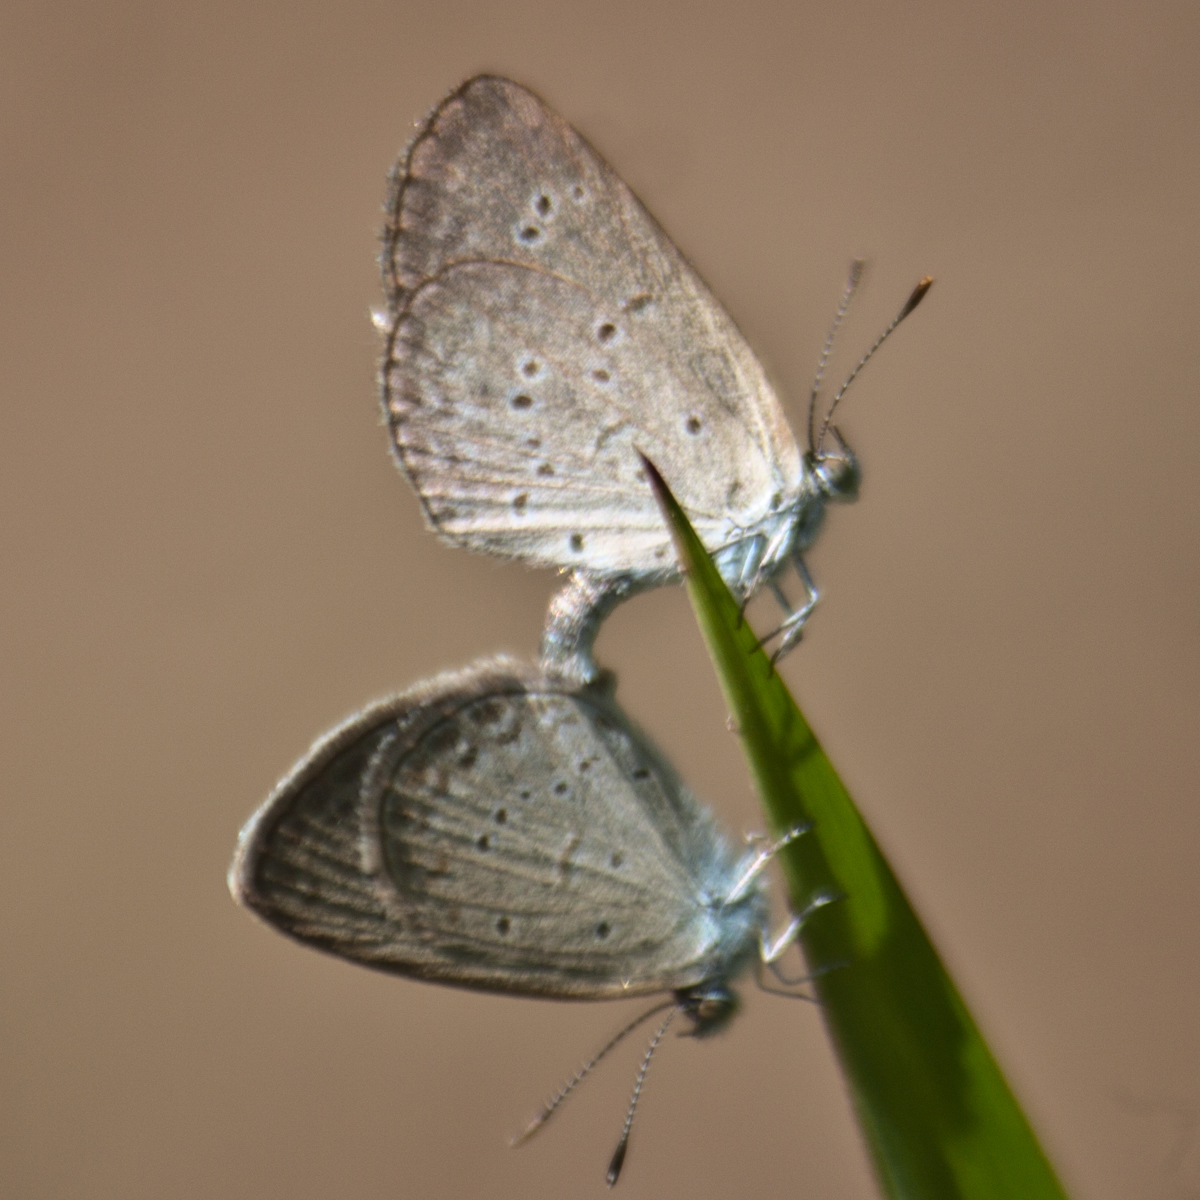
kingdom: Animalia
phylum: Arthropoda
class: Insecta
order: Lepidoptera
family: Lycaenidae
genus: Zizina
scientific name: Zizina otis
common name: Lesser grass blue
